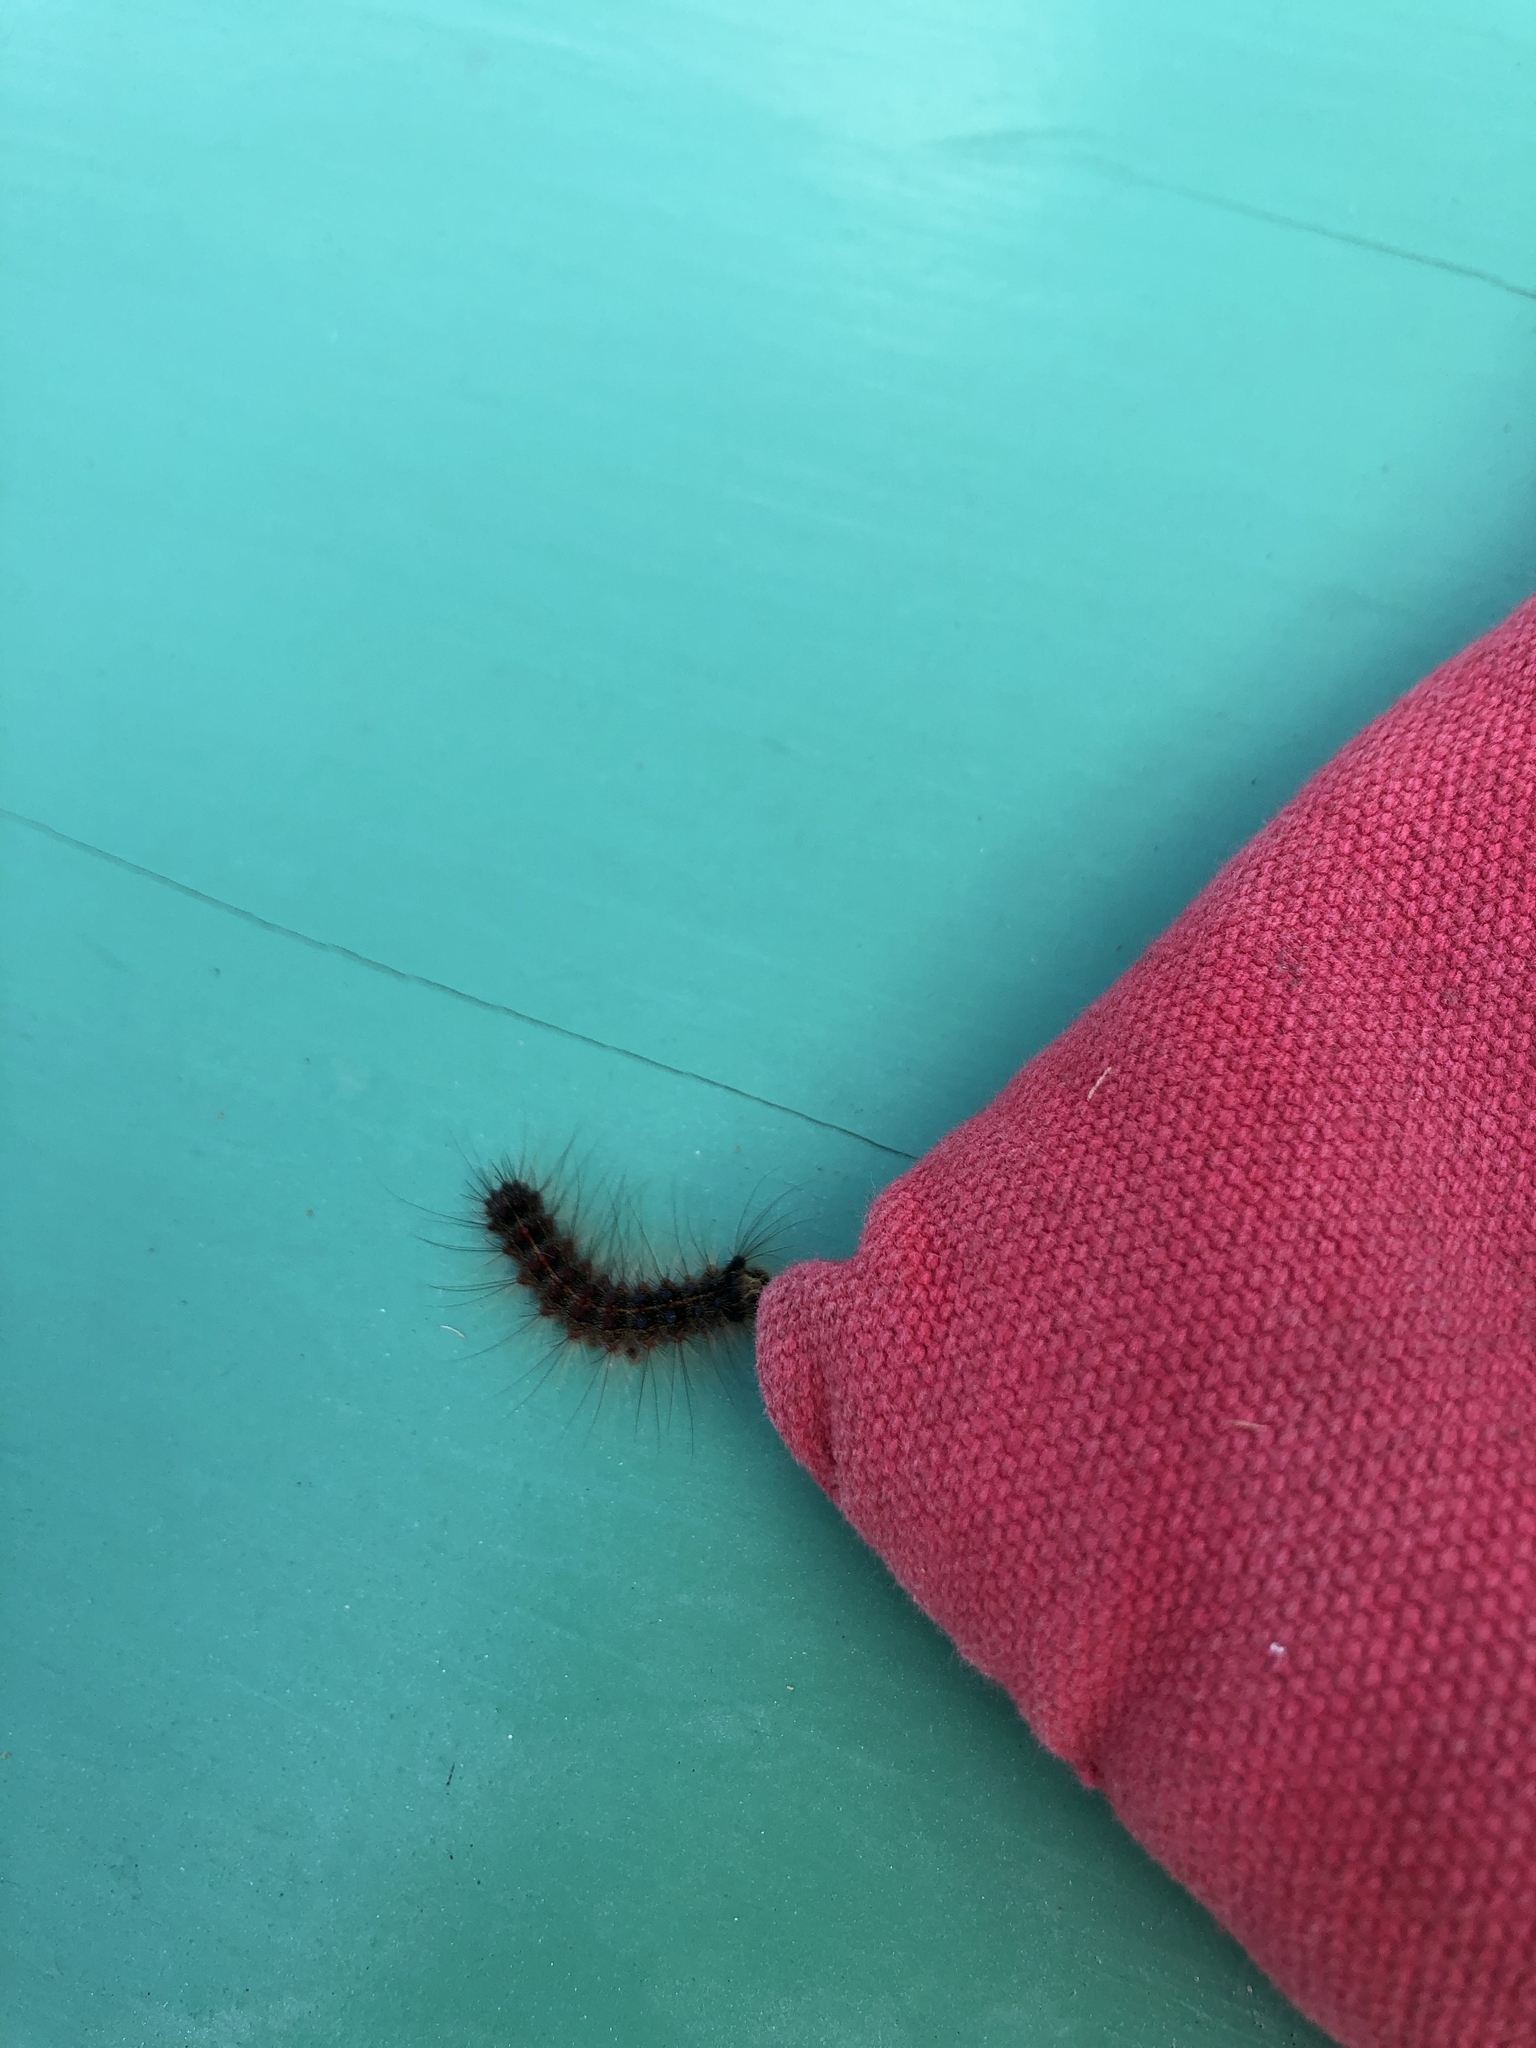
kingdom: Animalia
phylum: Arthropoda
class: Insecta
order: Lepidoptera
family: Erebidae
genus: Lymantria
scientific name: Lymantria dispar
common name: Gypsy moth
